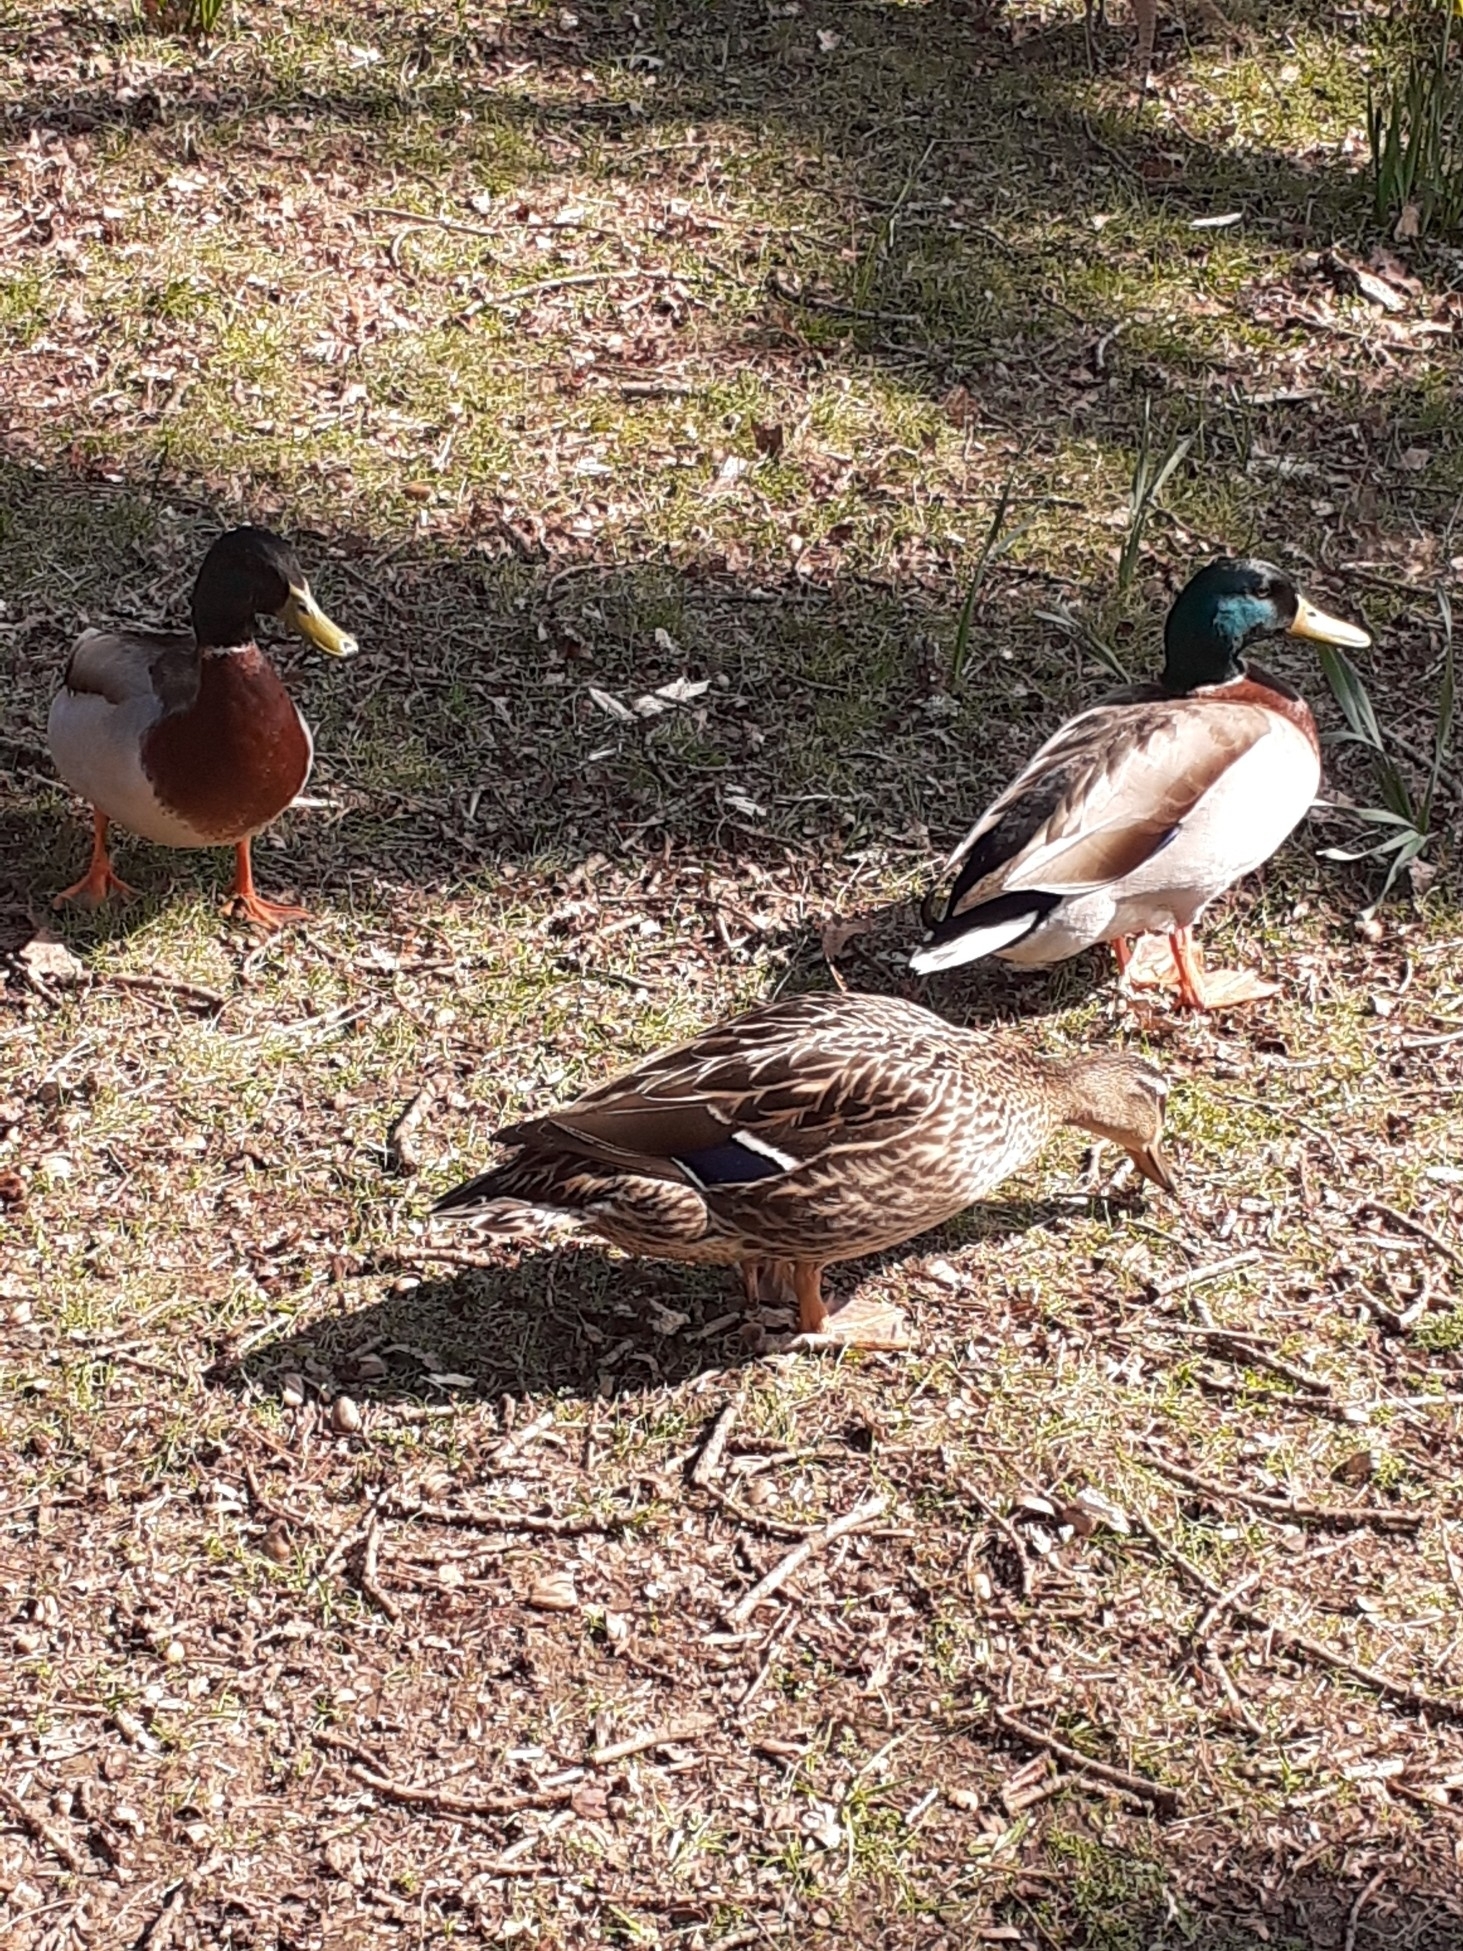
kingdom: Animalia
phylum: Chordata
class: Aves
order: Anseriformes
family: Anatidae
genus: Anas
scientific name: Anas platyrhynchos
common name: Mallard
